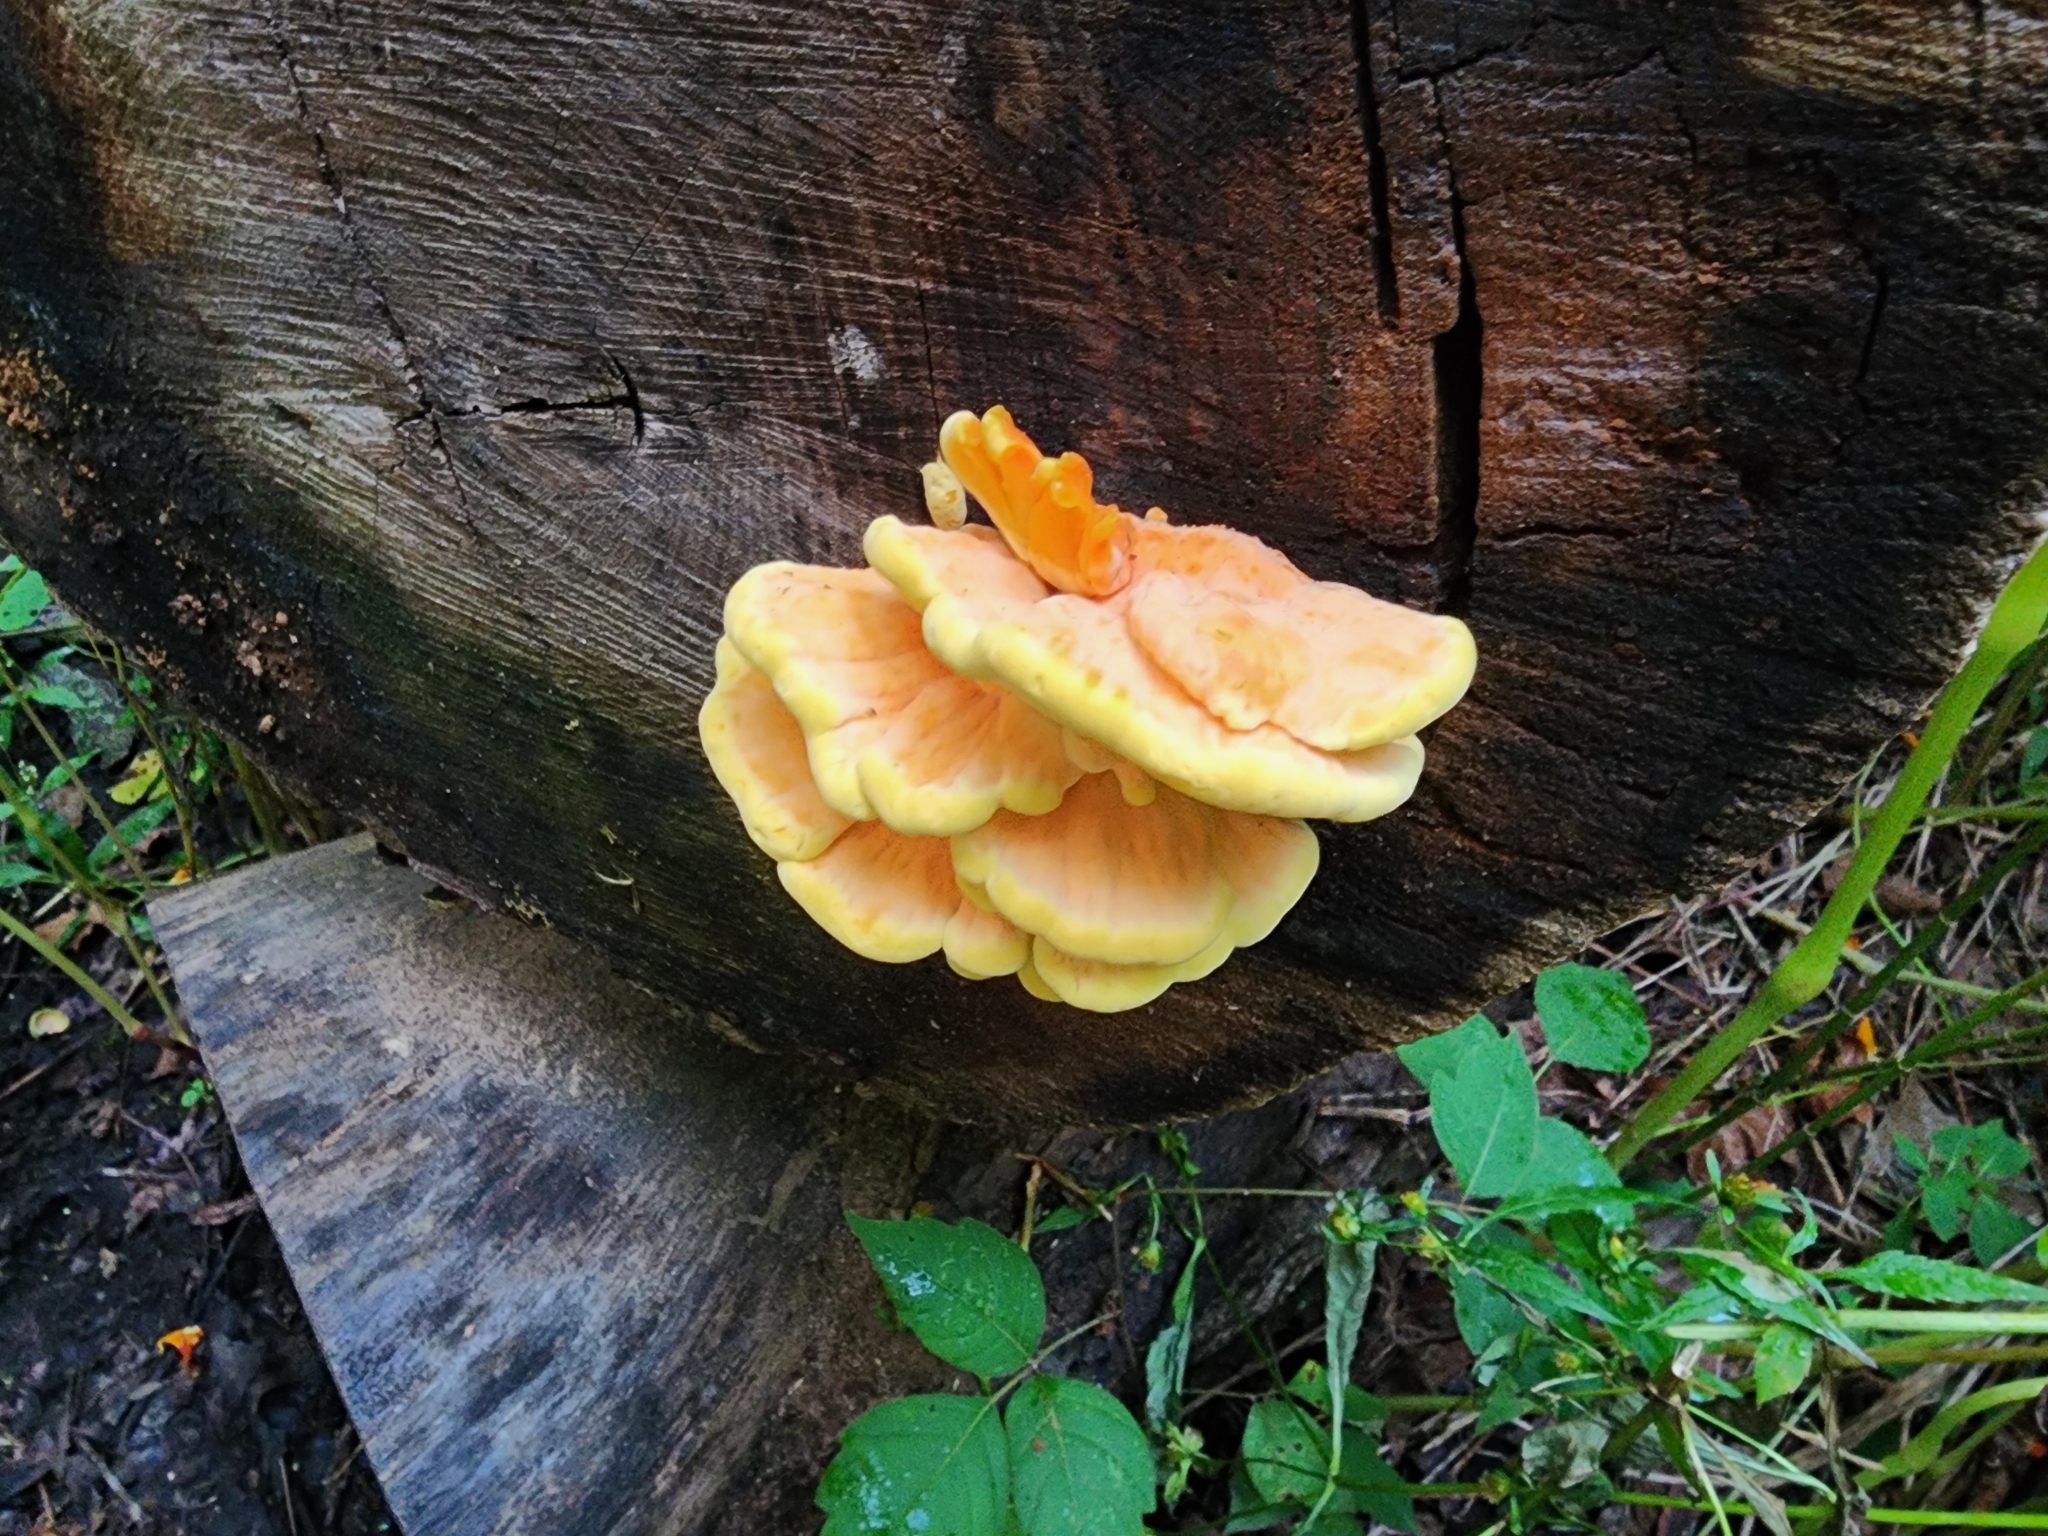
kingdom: Fungi
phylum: Basidiomycota
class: Agaricomycetes
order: Polyporales
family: Laetiporaceae
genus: Laetiporus
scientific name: Laetiporus sulphureus
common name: Chicken of the woods
